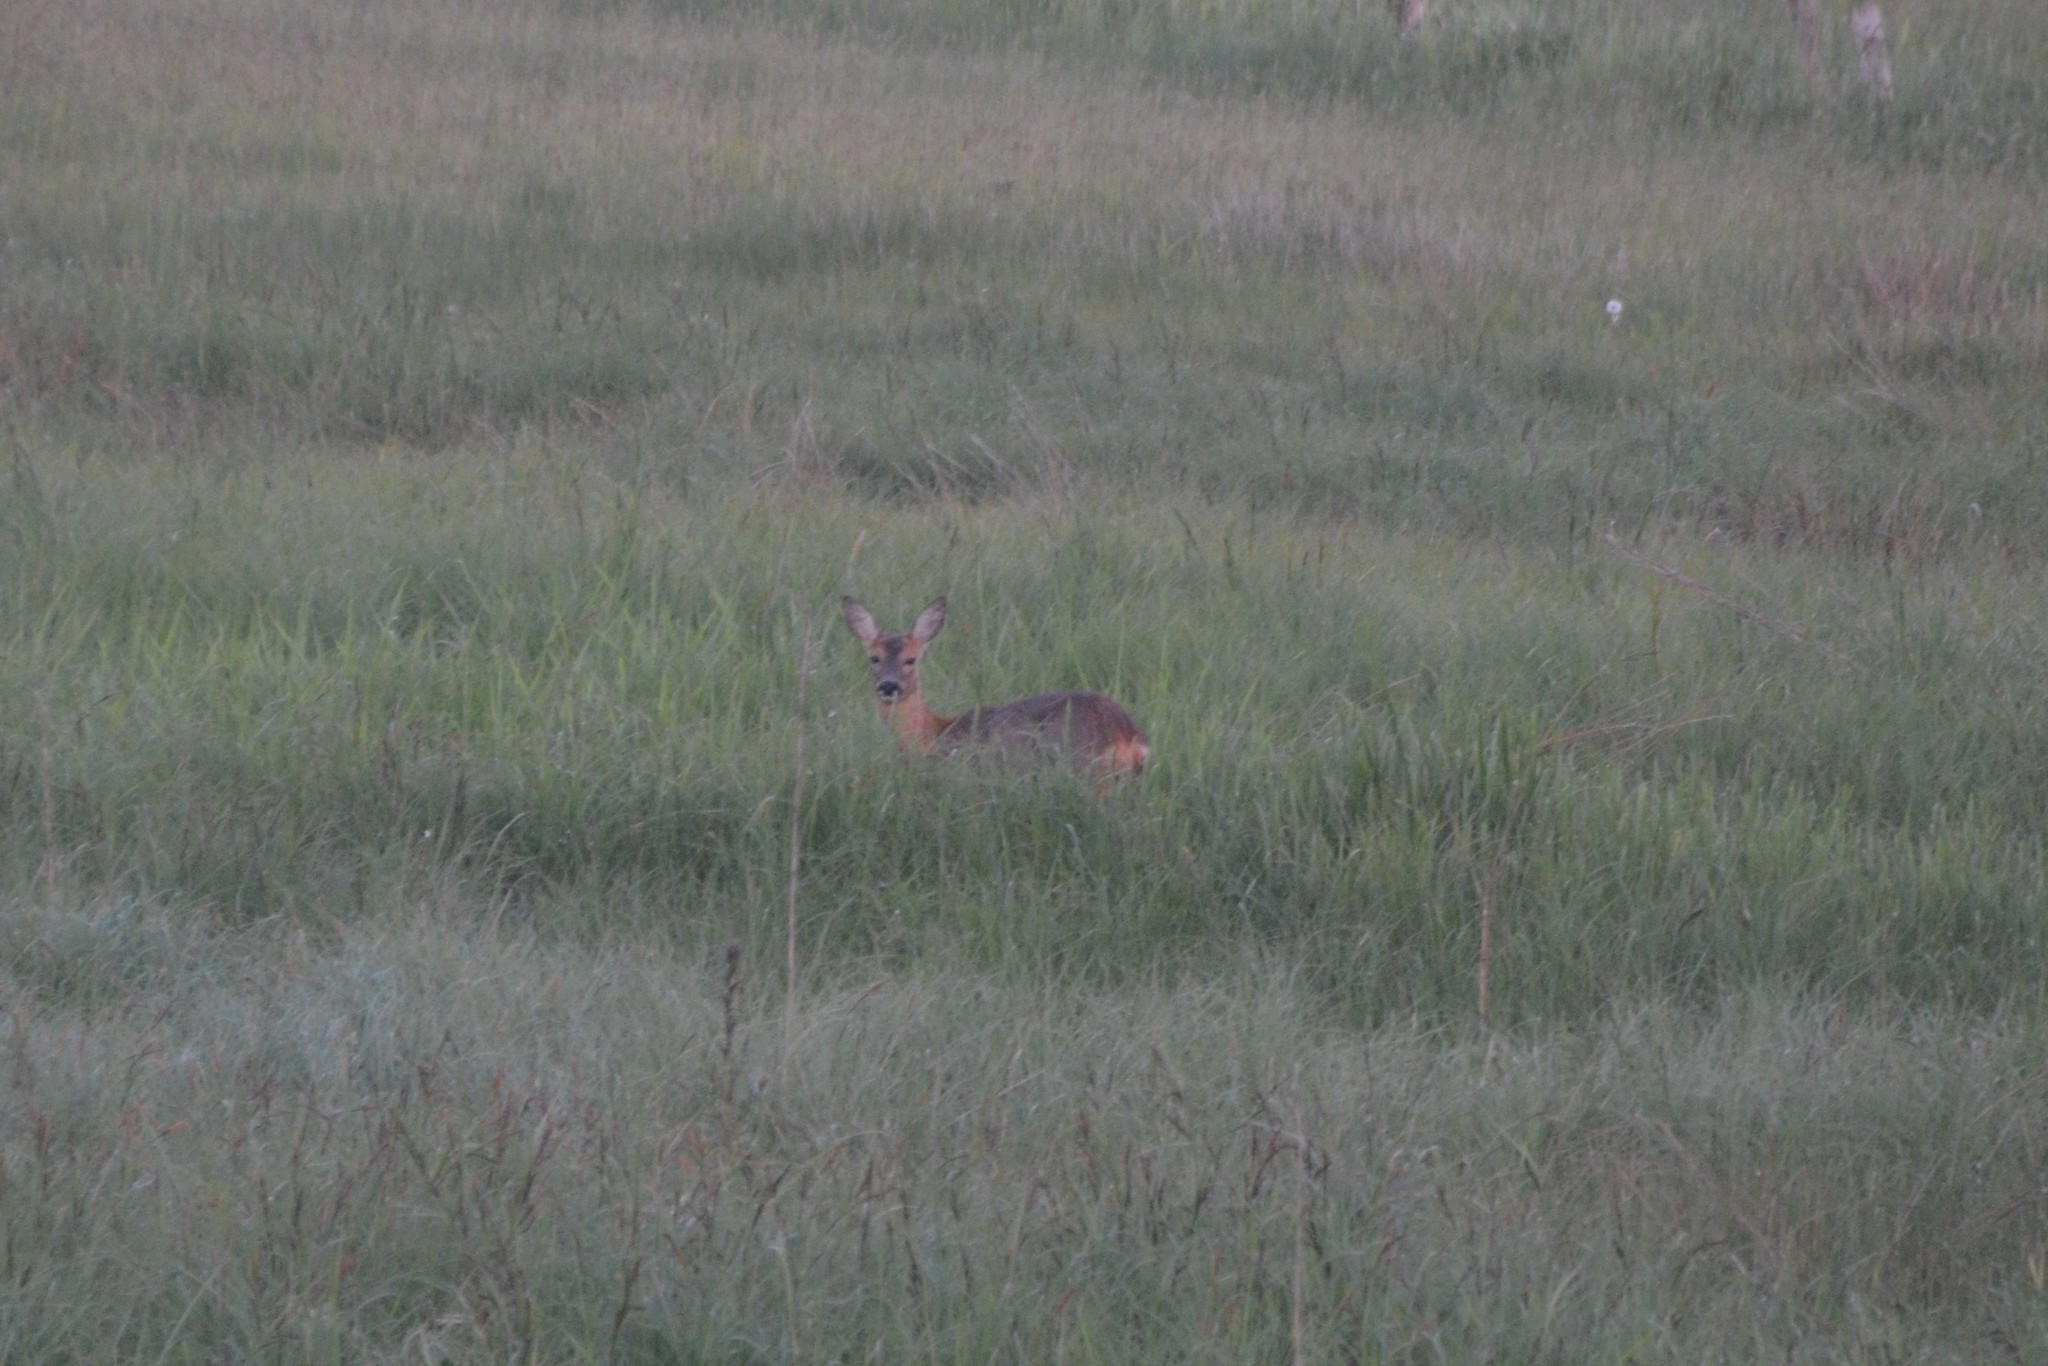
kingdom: Animalia
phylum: Chordata
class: Mammalia
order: Artiodactyla
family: Cervidae
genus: Capreolus
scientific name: Capreolus capreolus
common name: Western roe deer
